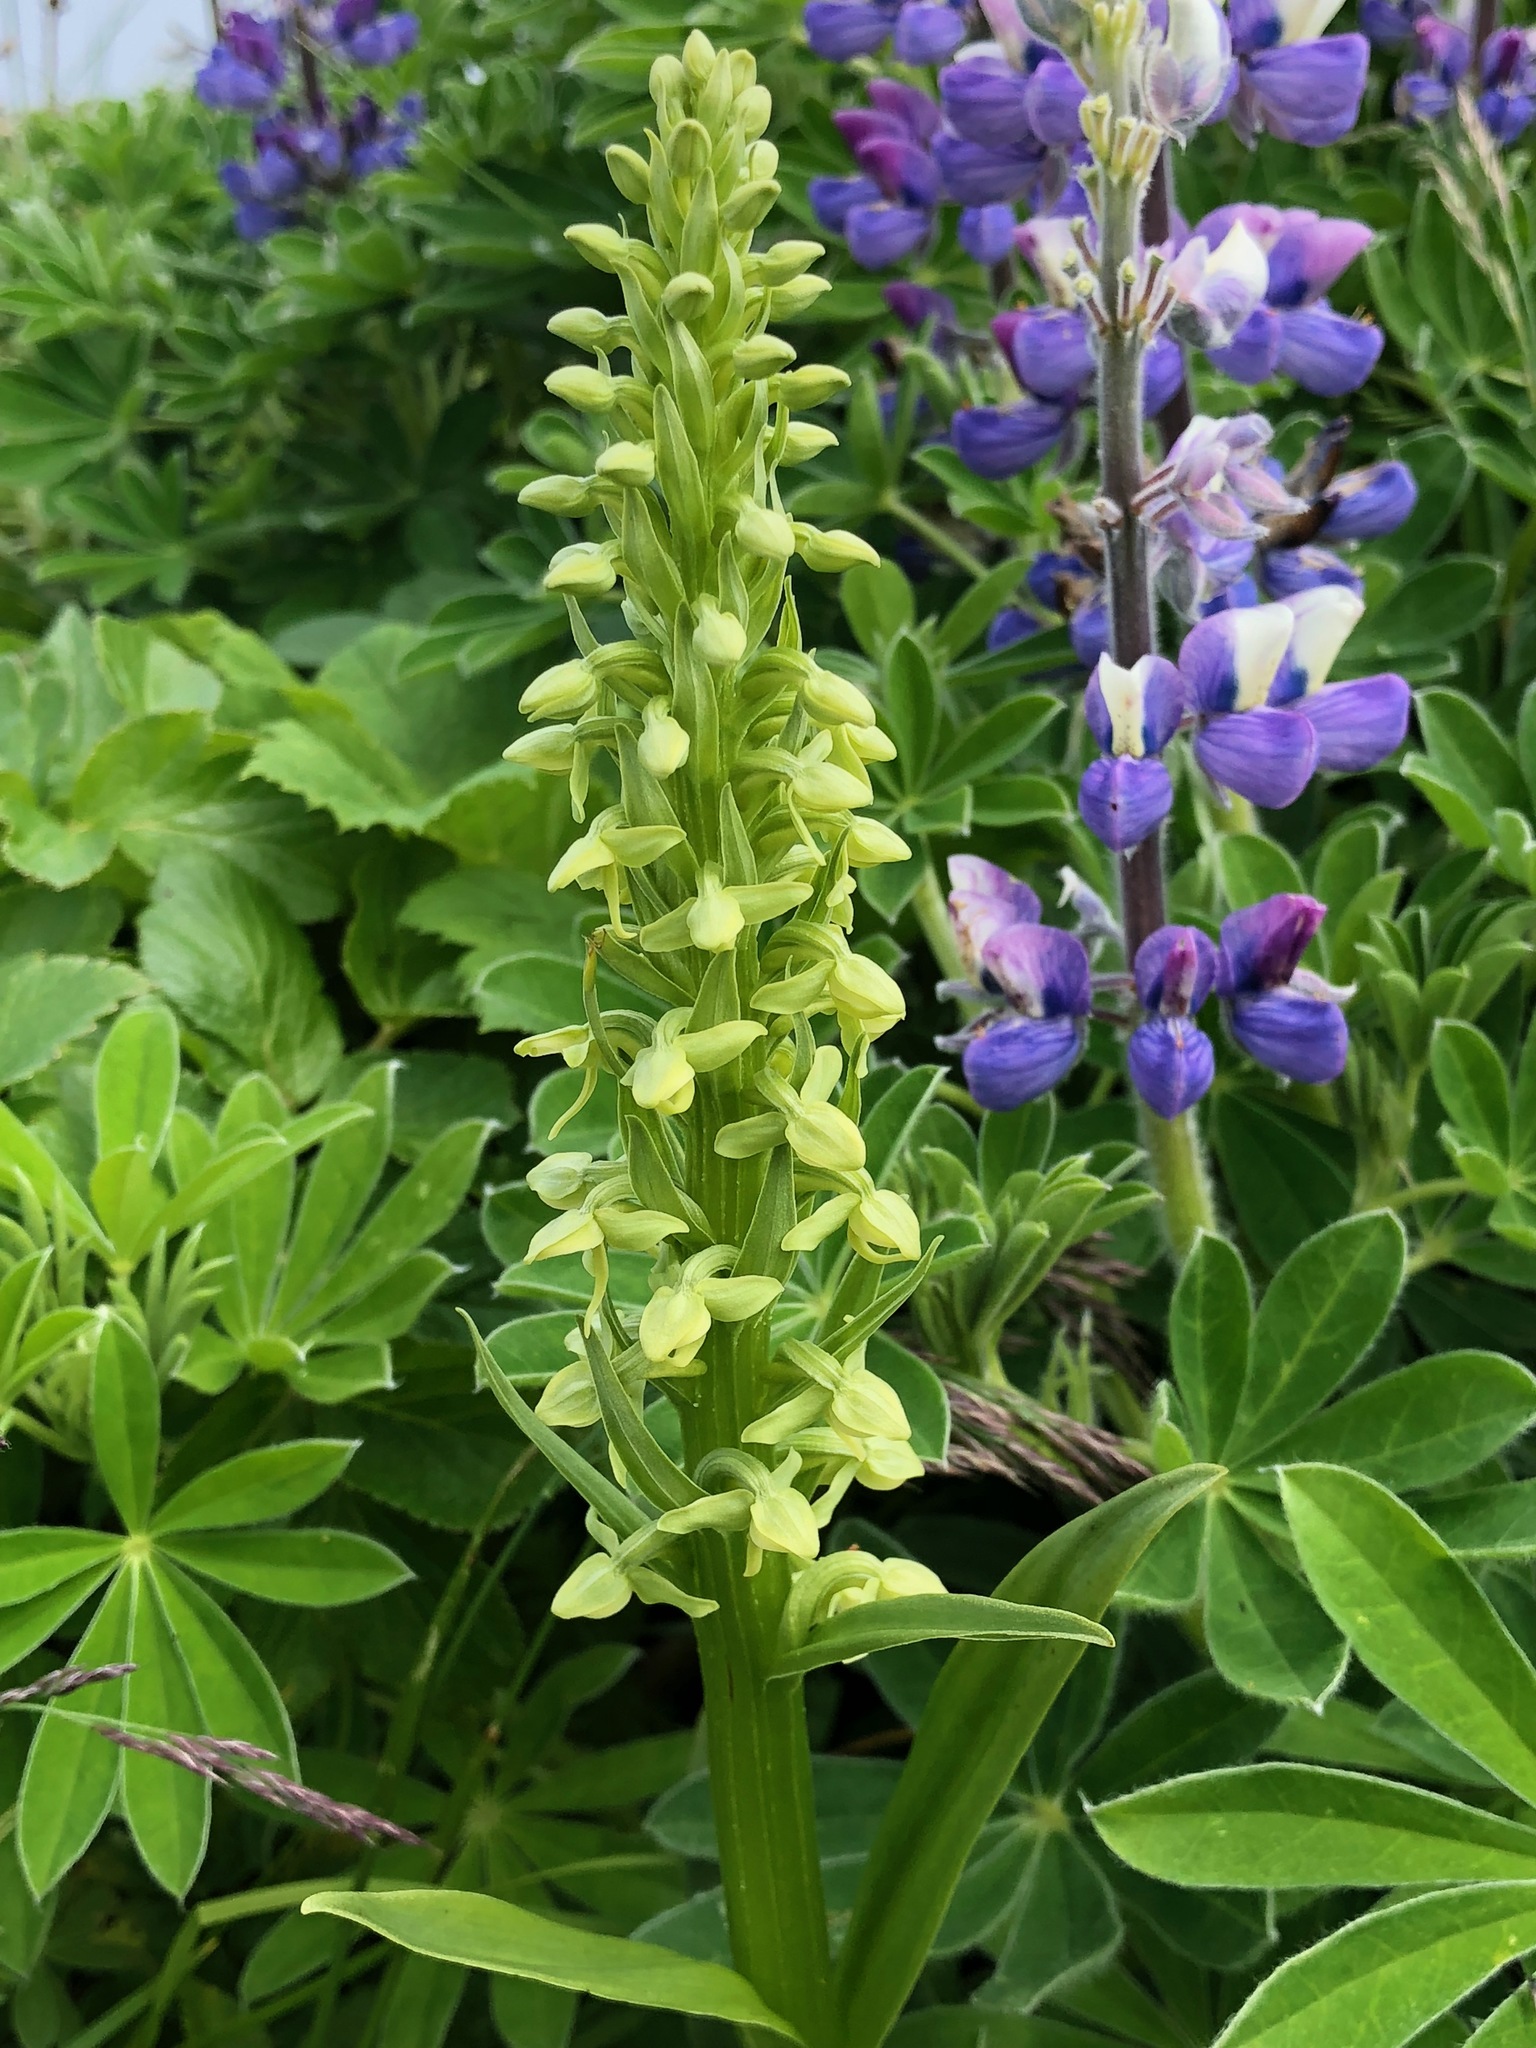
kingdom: Plantae
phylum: Tracheophyta
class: Liliopsida
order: Asparagales
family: Orchidaceae
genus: Platanthera
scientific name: Platanthera convallariifolia
